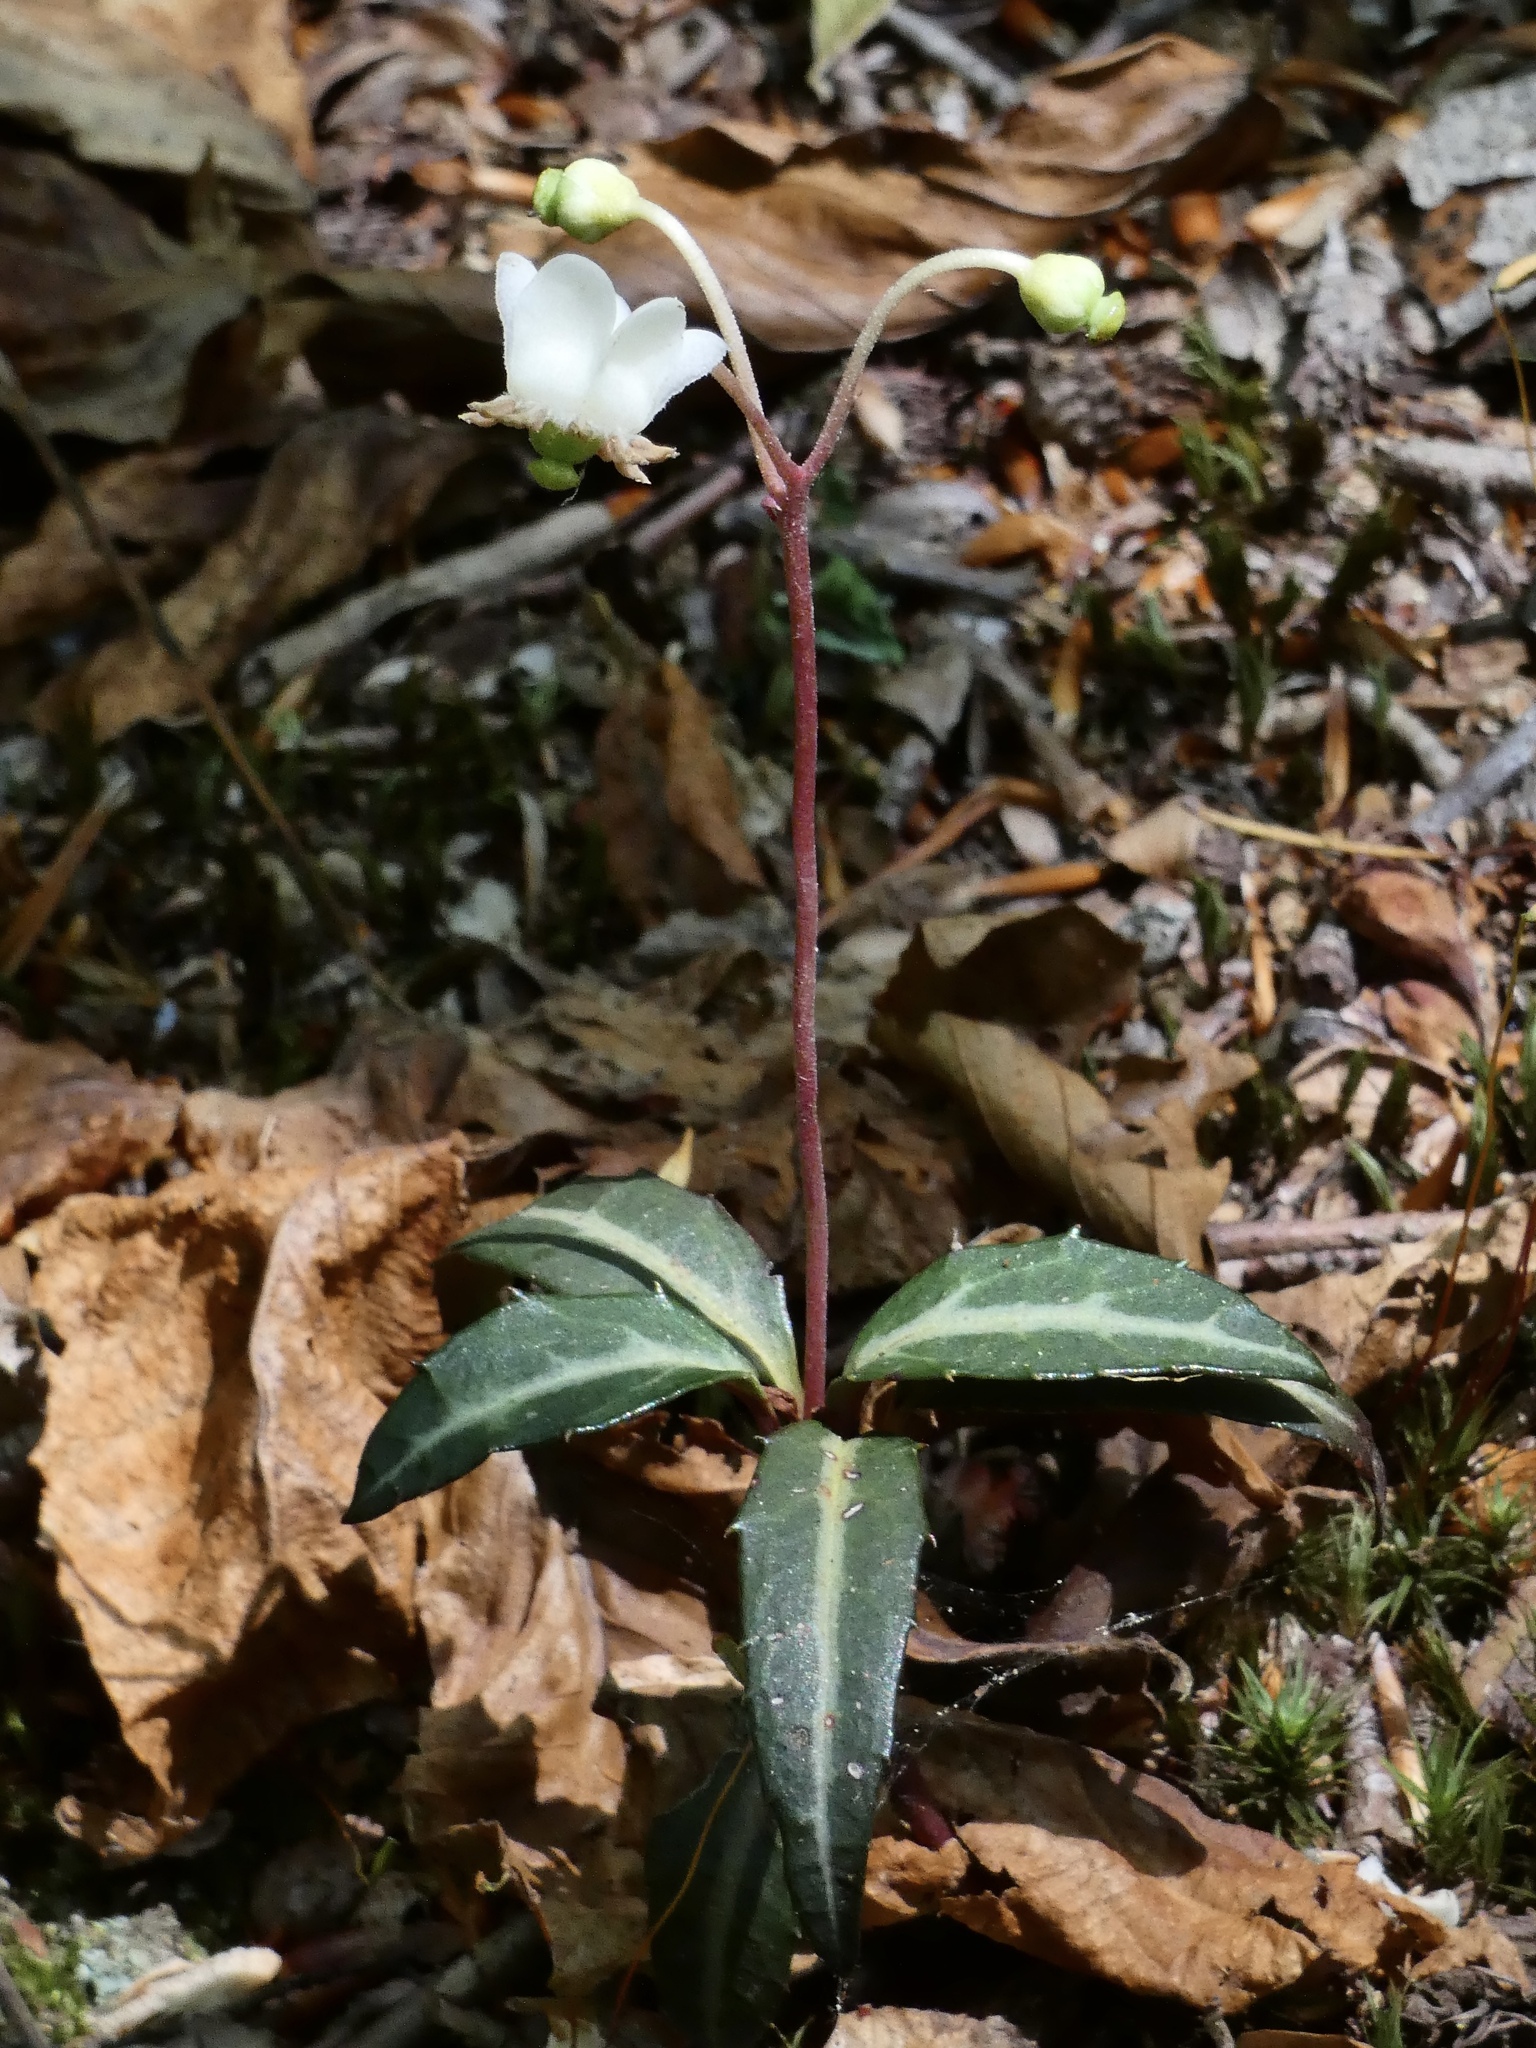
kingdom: Plantae
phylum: Tracheophyta
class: Magnoliopsida
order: Ericales
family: Ericaceae
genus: Chimaphila
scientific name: Chimaphila maculata
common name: Spotted pipsissewa
